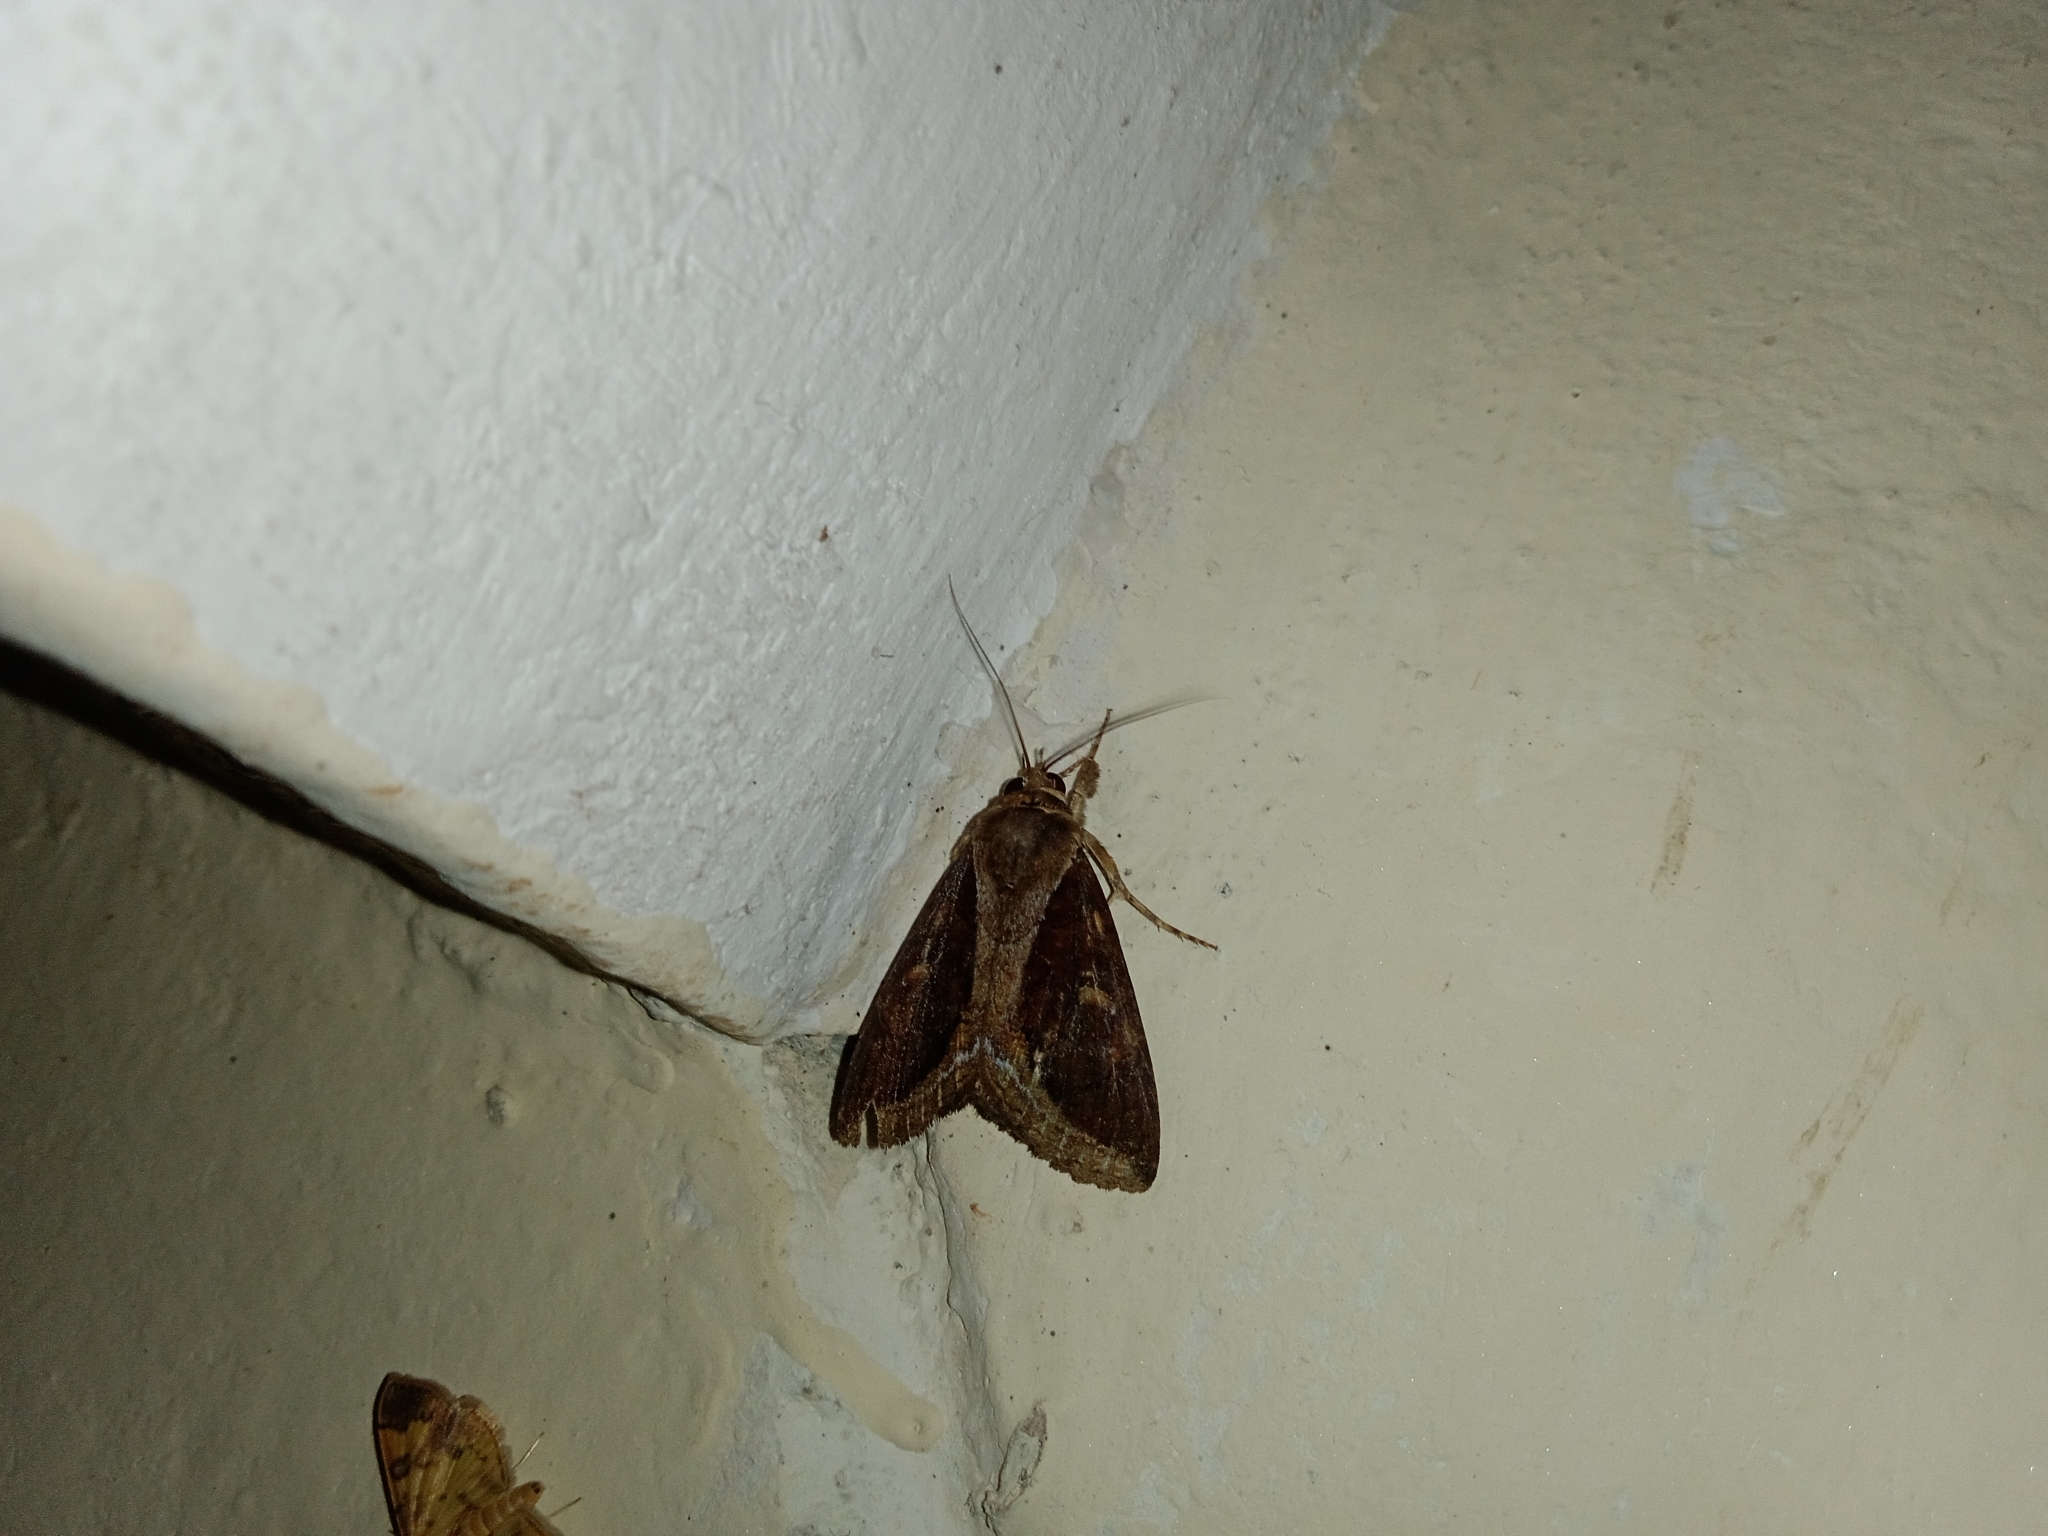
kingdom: Animalia
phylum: Arthropoda
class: Insecta
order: Lepidoptera
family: Erebidae
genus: Ercheia
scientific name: Ercheia cyllaria
